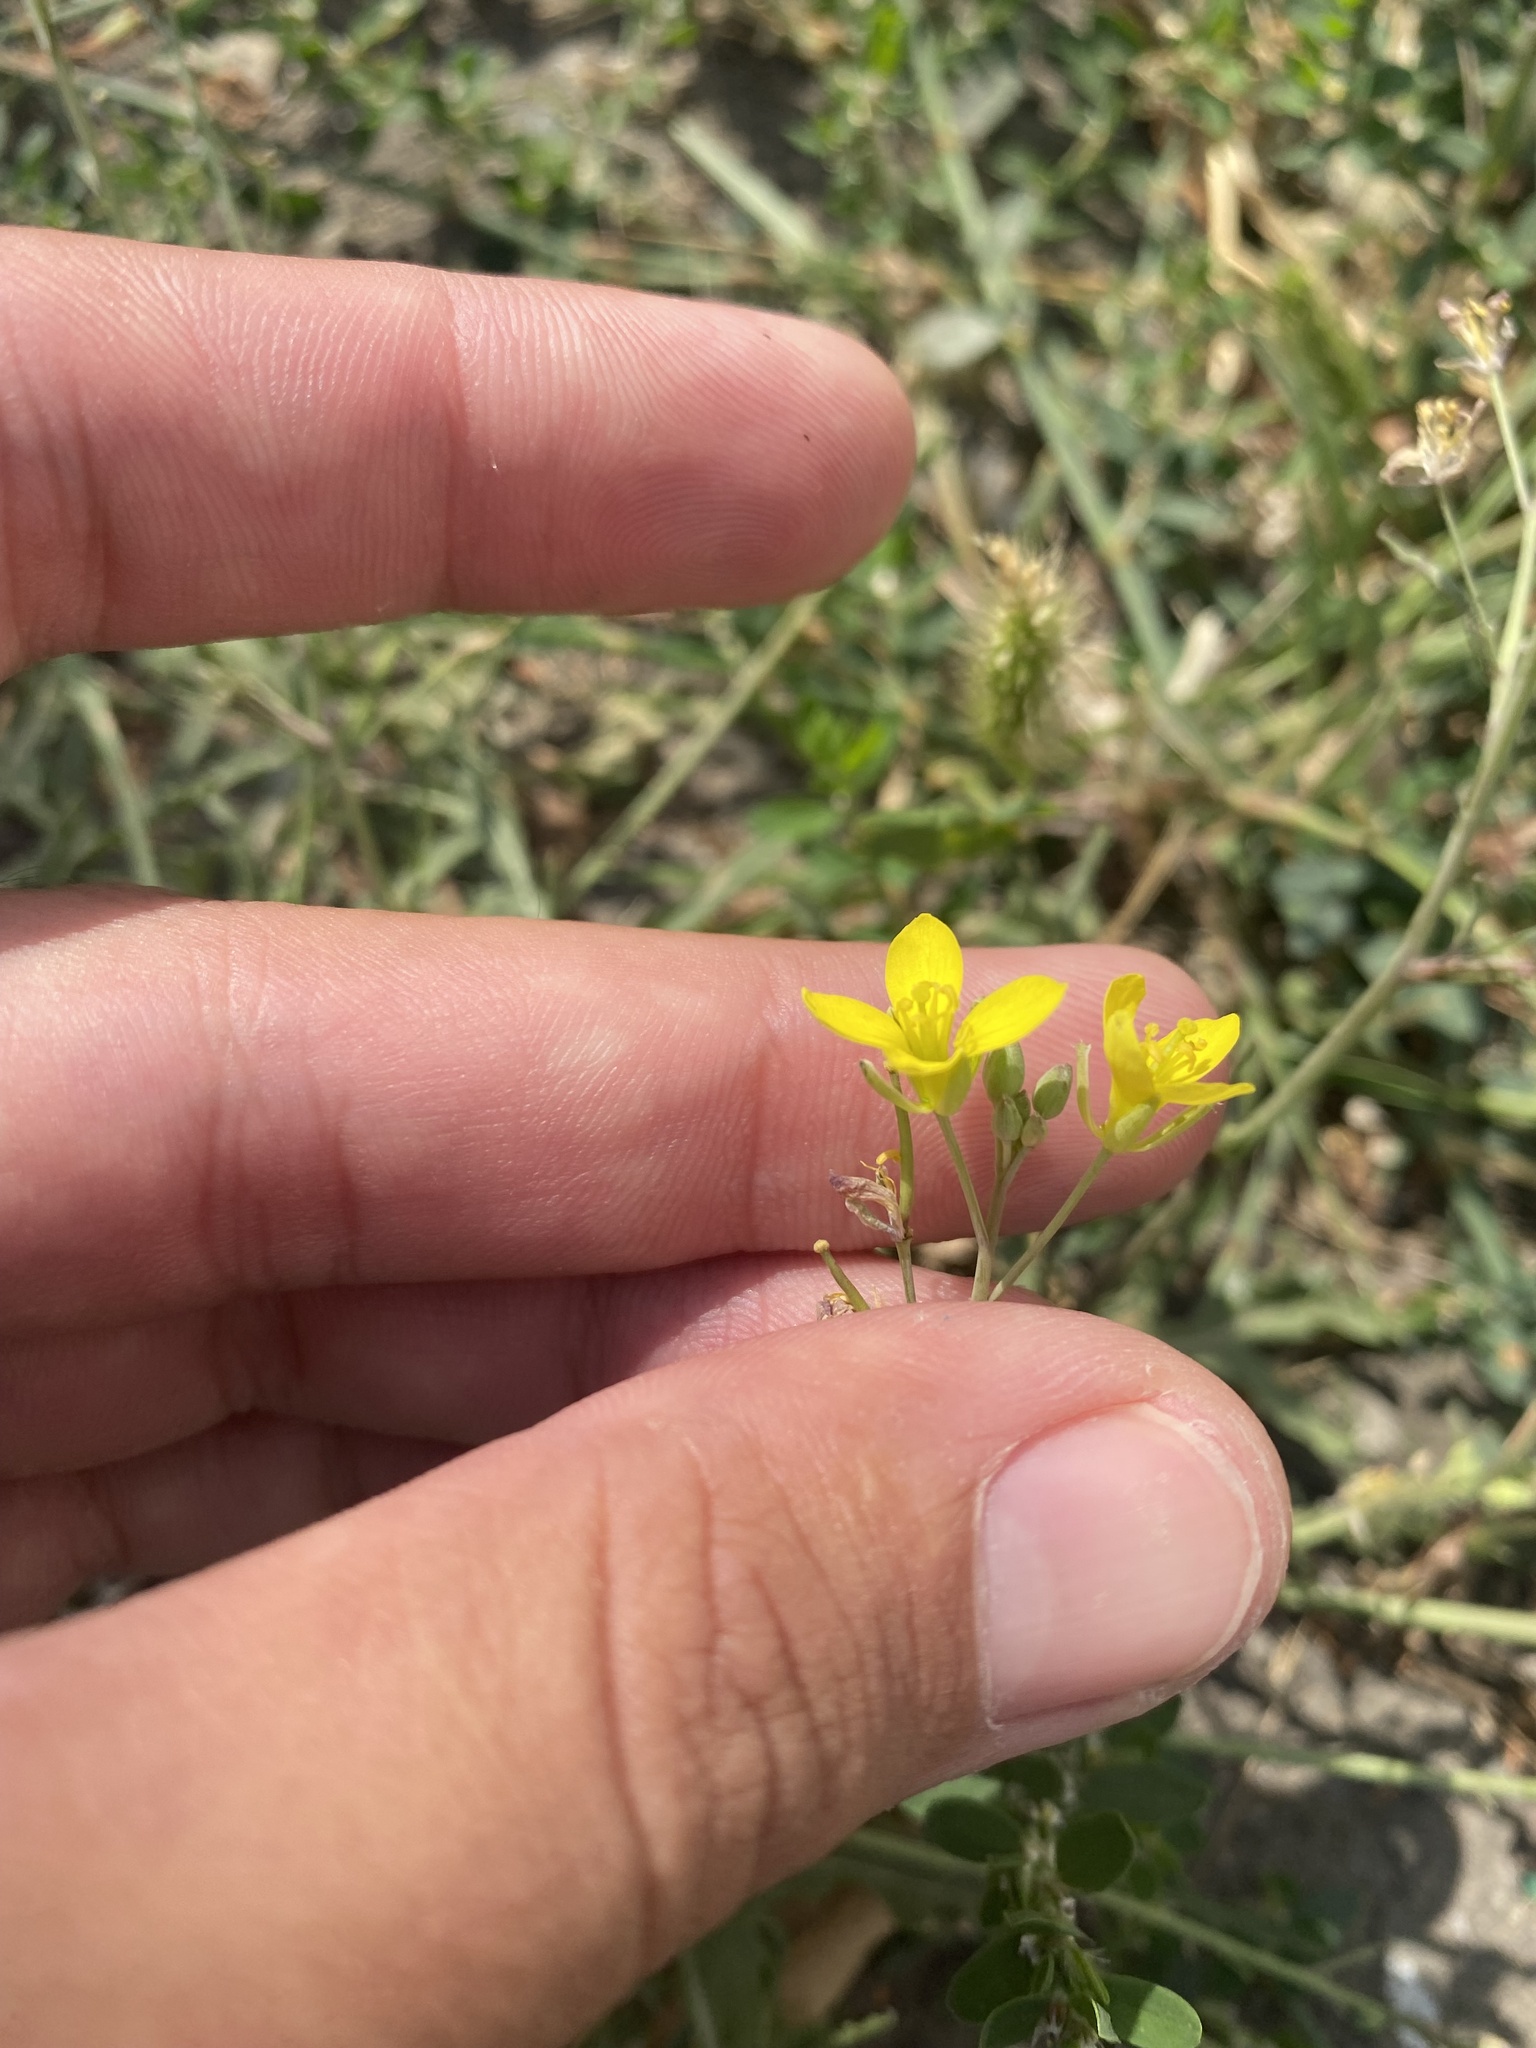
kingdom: Plantae
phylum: Tracheophyta
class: Magnoliopsida
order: Brassicales
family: Brassicaceae
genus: Diplotaxis
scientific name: Diplotaxis tenuifolia
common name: Perennial wall-rocket
